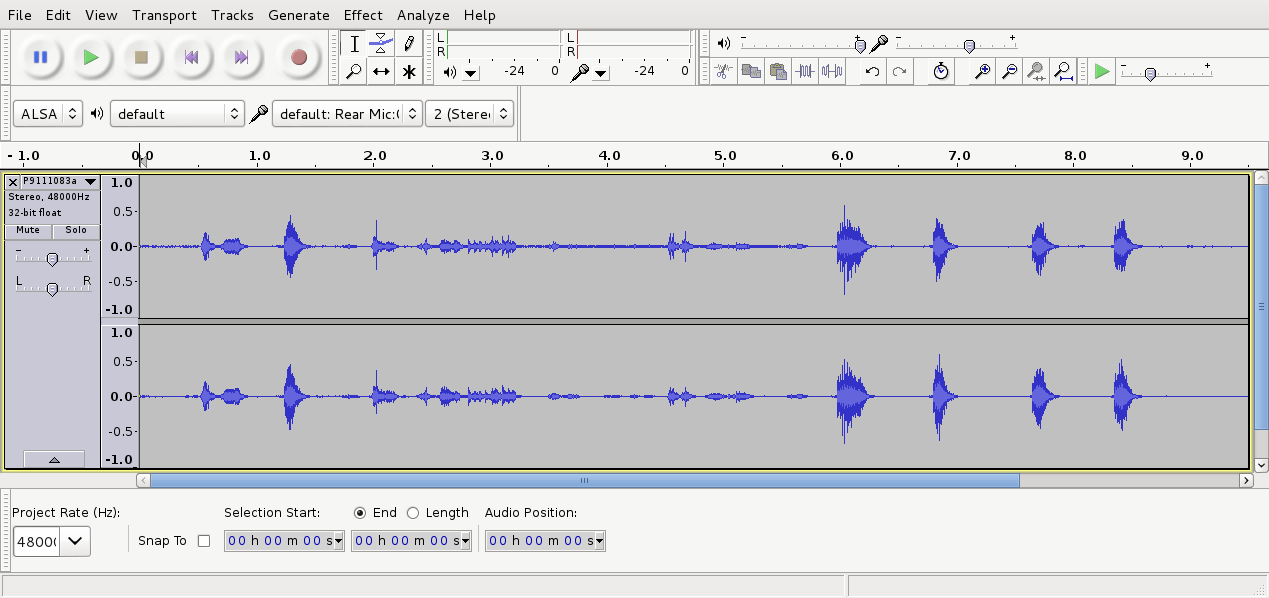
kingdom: Animalia
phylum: Chordata
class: Aves
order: Passeriformes
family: Meliphagidae
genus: Prosthemadera
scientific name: Prosthemadera novaeseelandiae
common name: Tui
